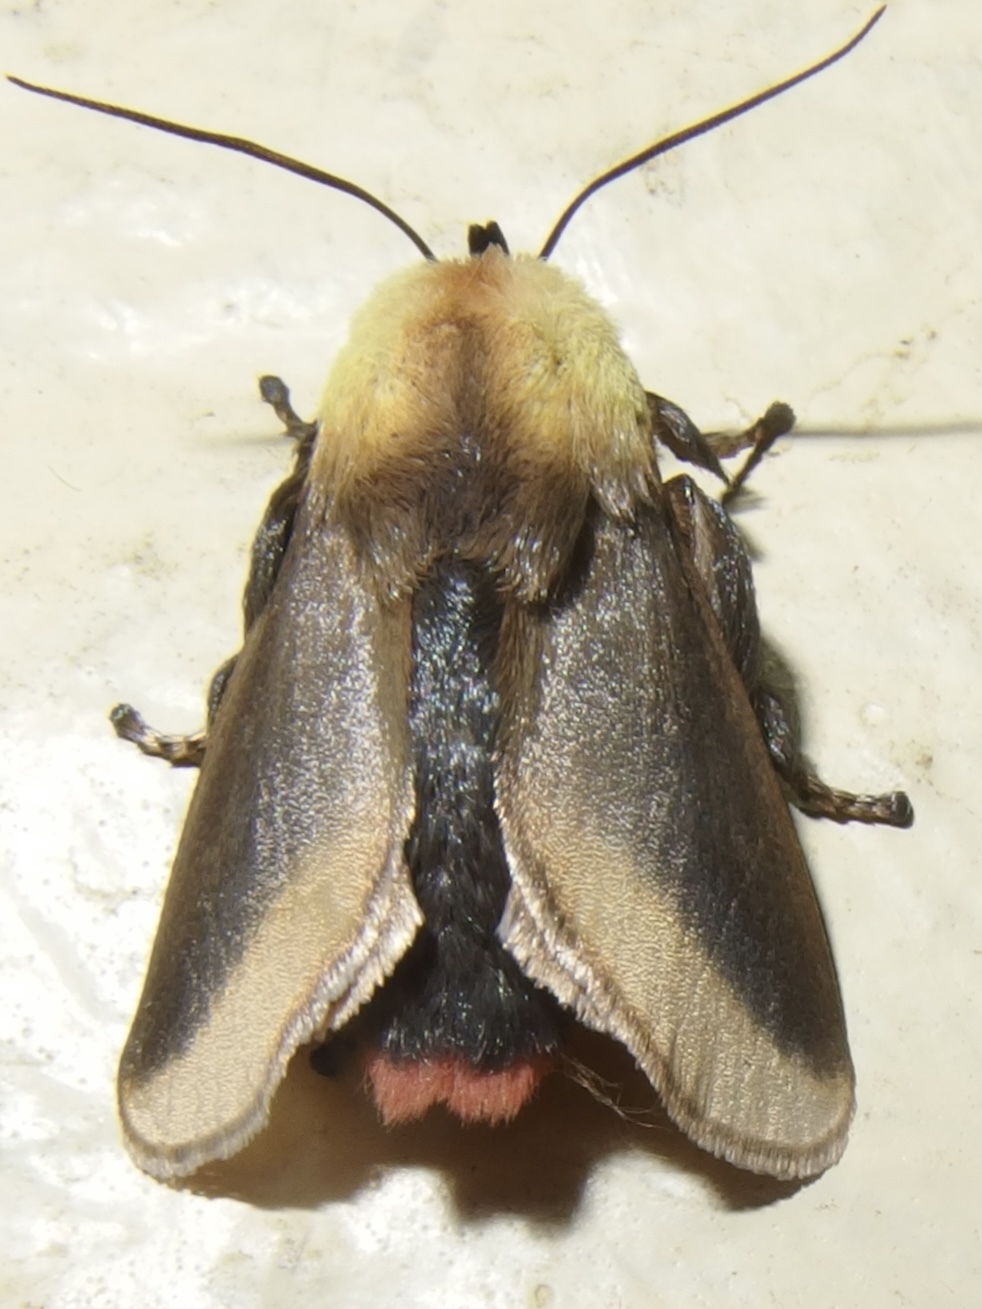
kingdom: Animalia
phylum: Arthropoda
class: Insecta
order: Lepidoptera
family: Limacodidae
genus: Vipsania
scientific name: Vipsania bicolor
